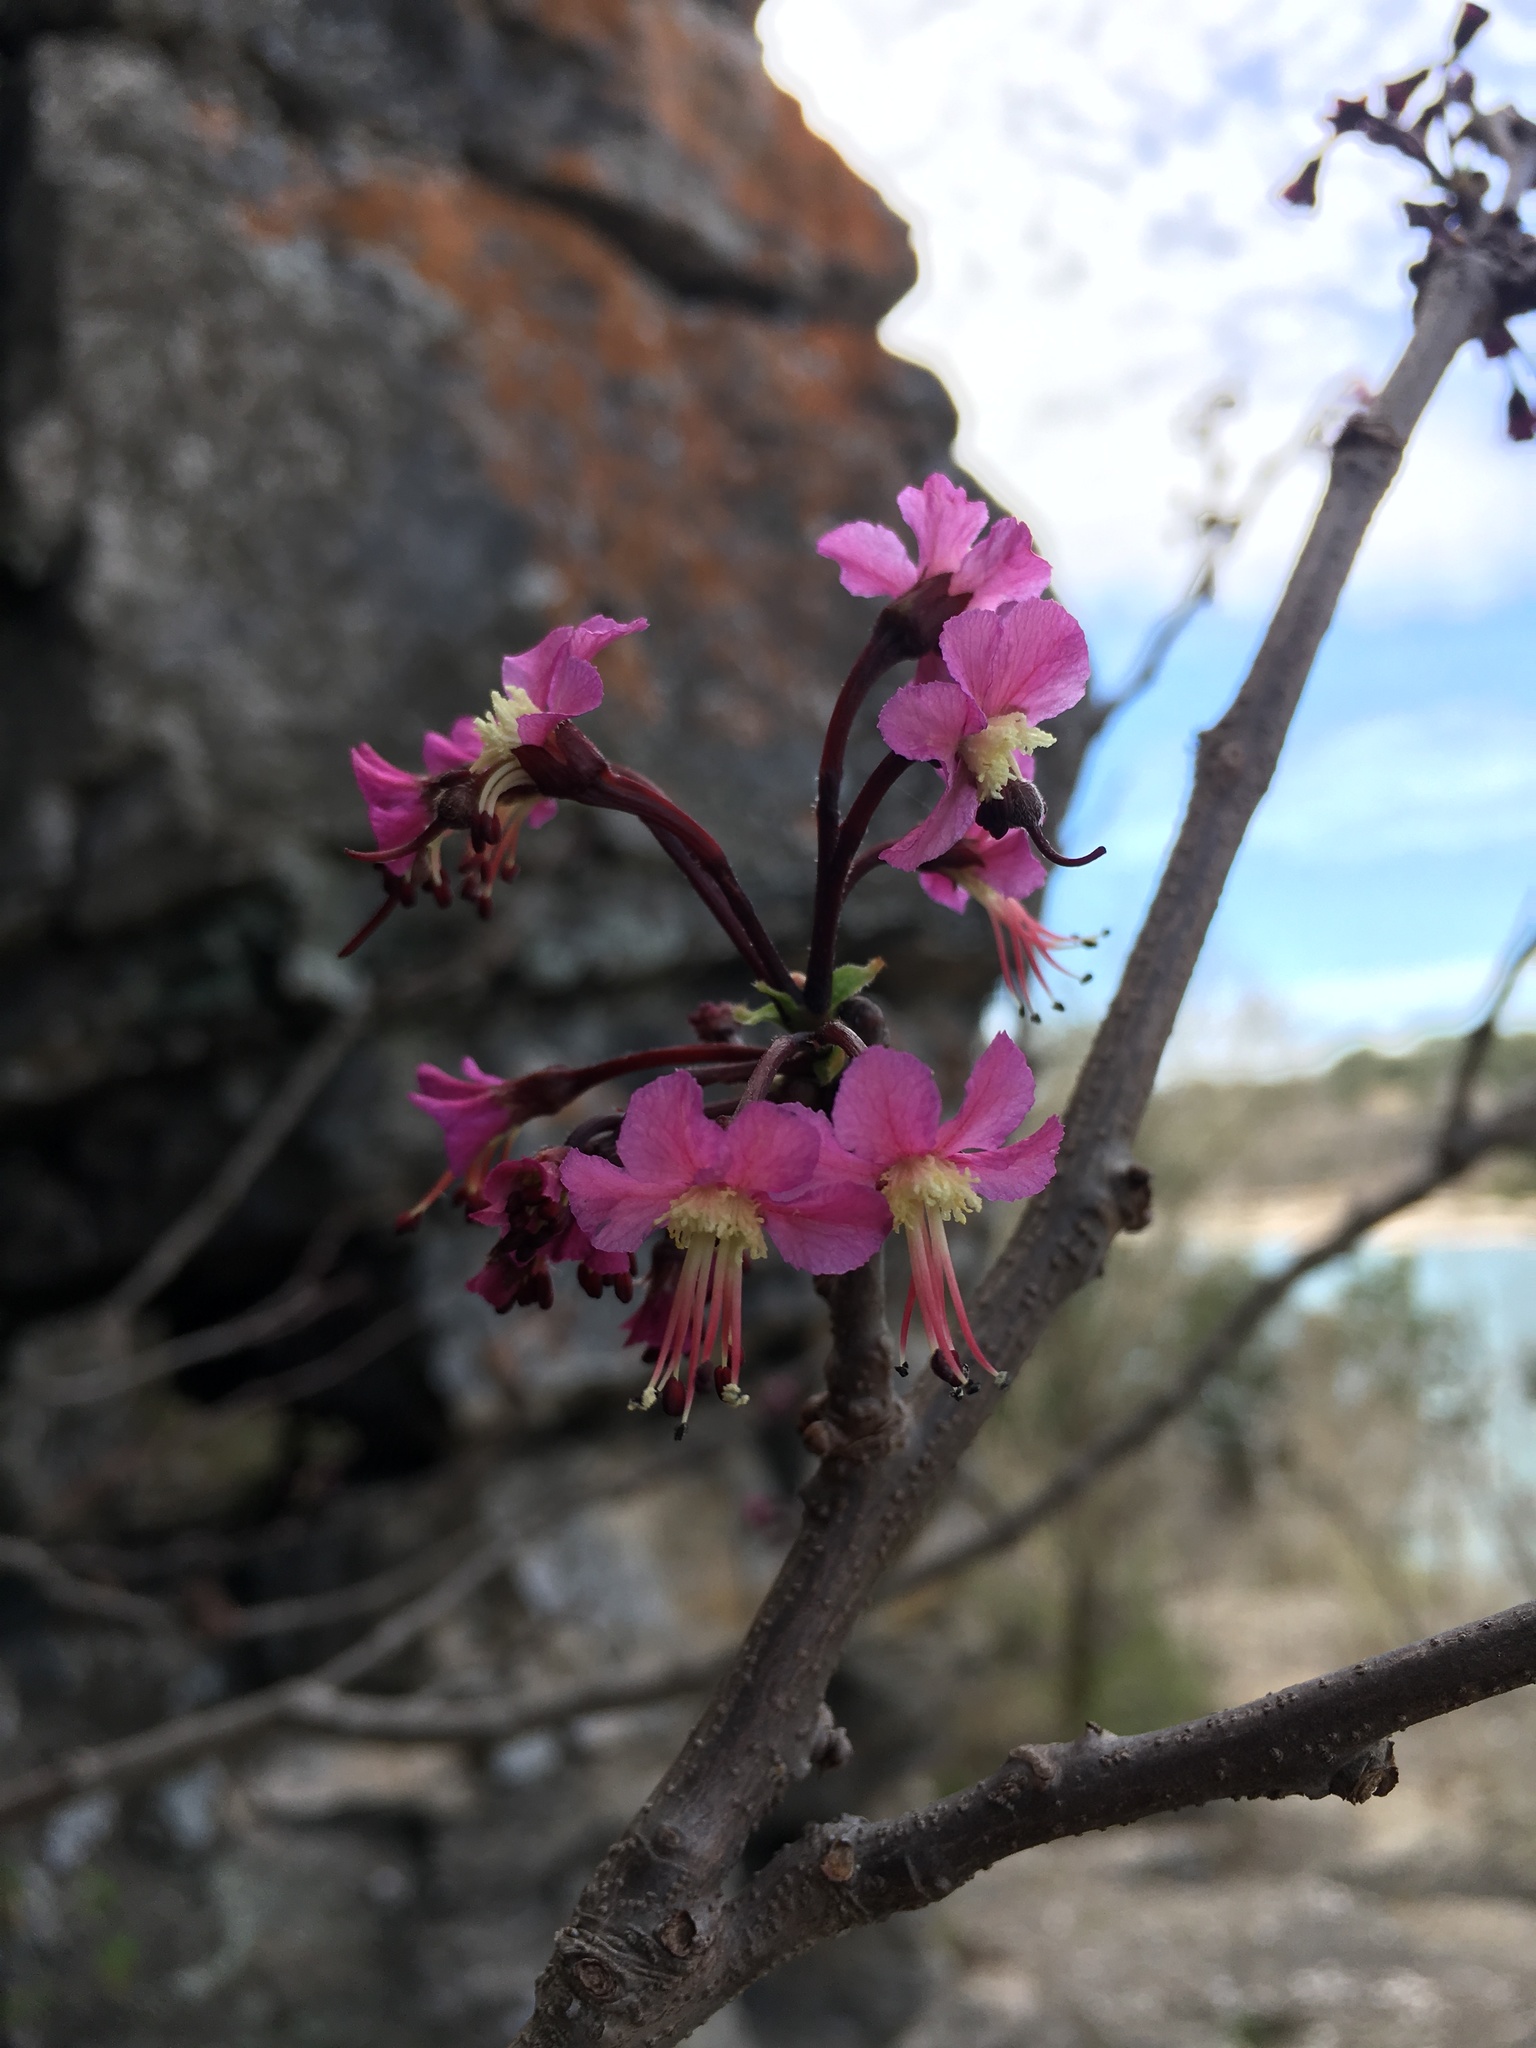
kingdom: Plantae
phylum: Tracheophyta
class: Magnoliopsida
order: Sapindales
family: Sapindaceae
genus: Ungnadia
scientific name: Ungnadia speciosa
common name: Texas-buckeye
